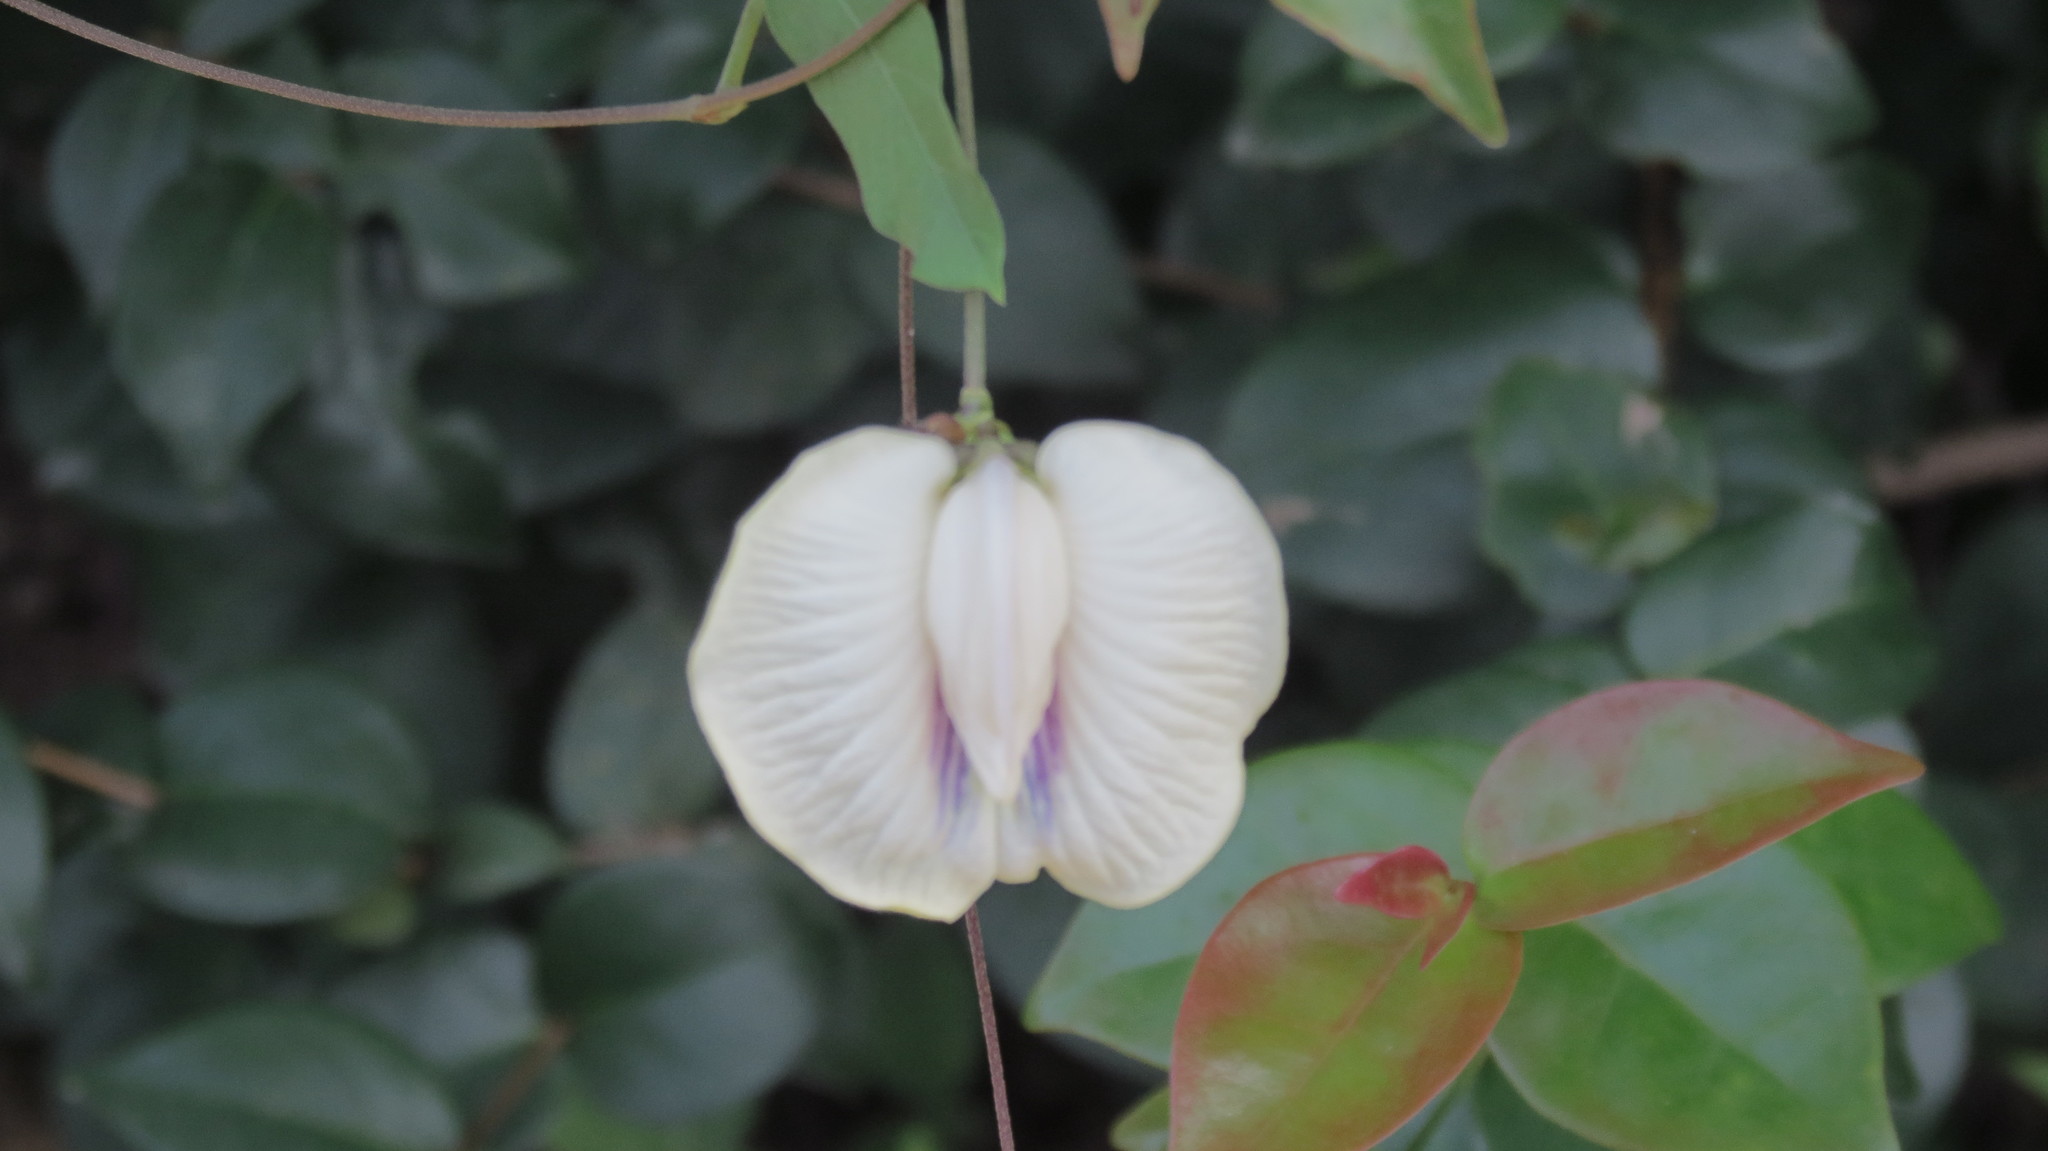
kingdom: Plantae
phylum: Tracheophyta
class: Magnoliopsida
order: Fabales
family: Fabaceae
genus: Centrosema
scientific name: Centrosema pubescens
